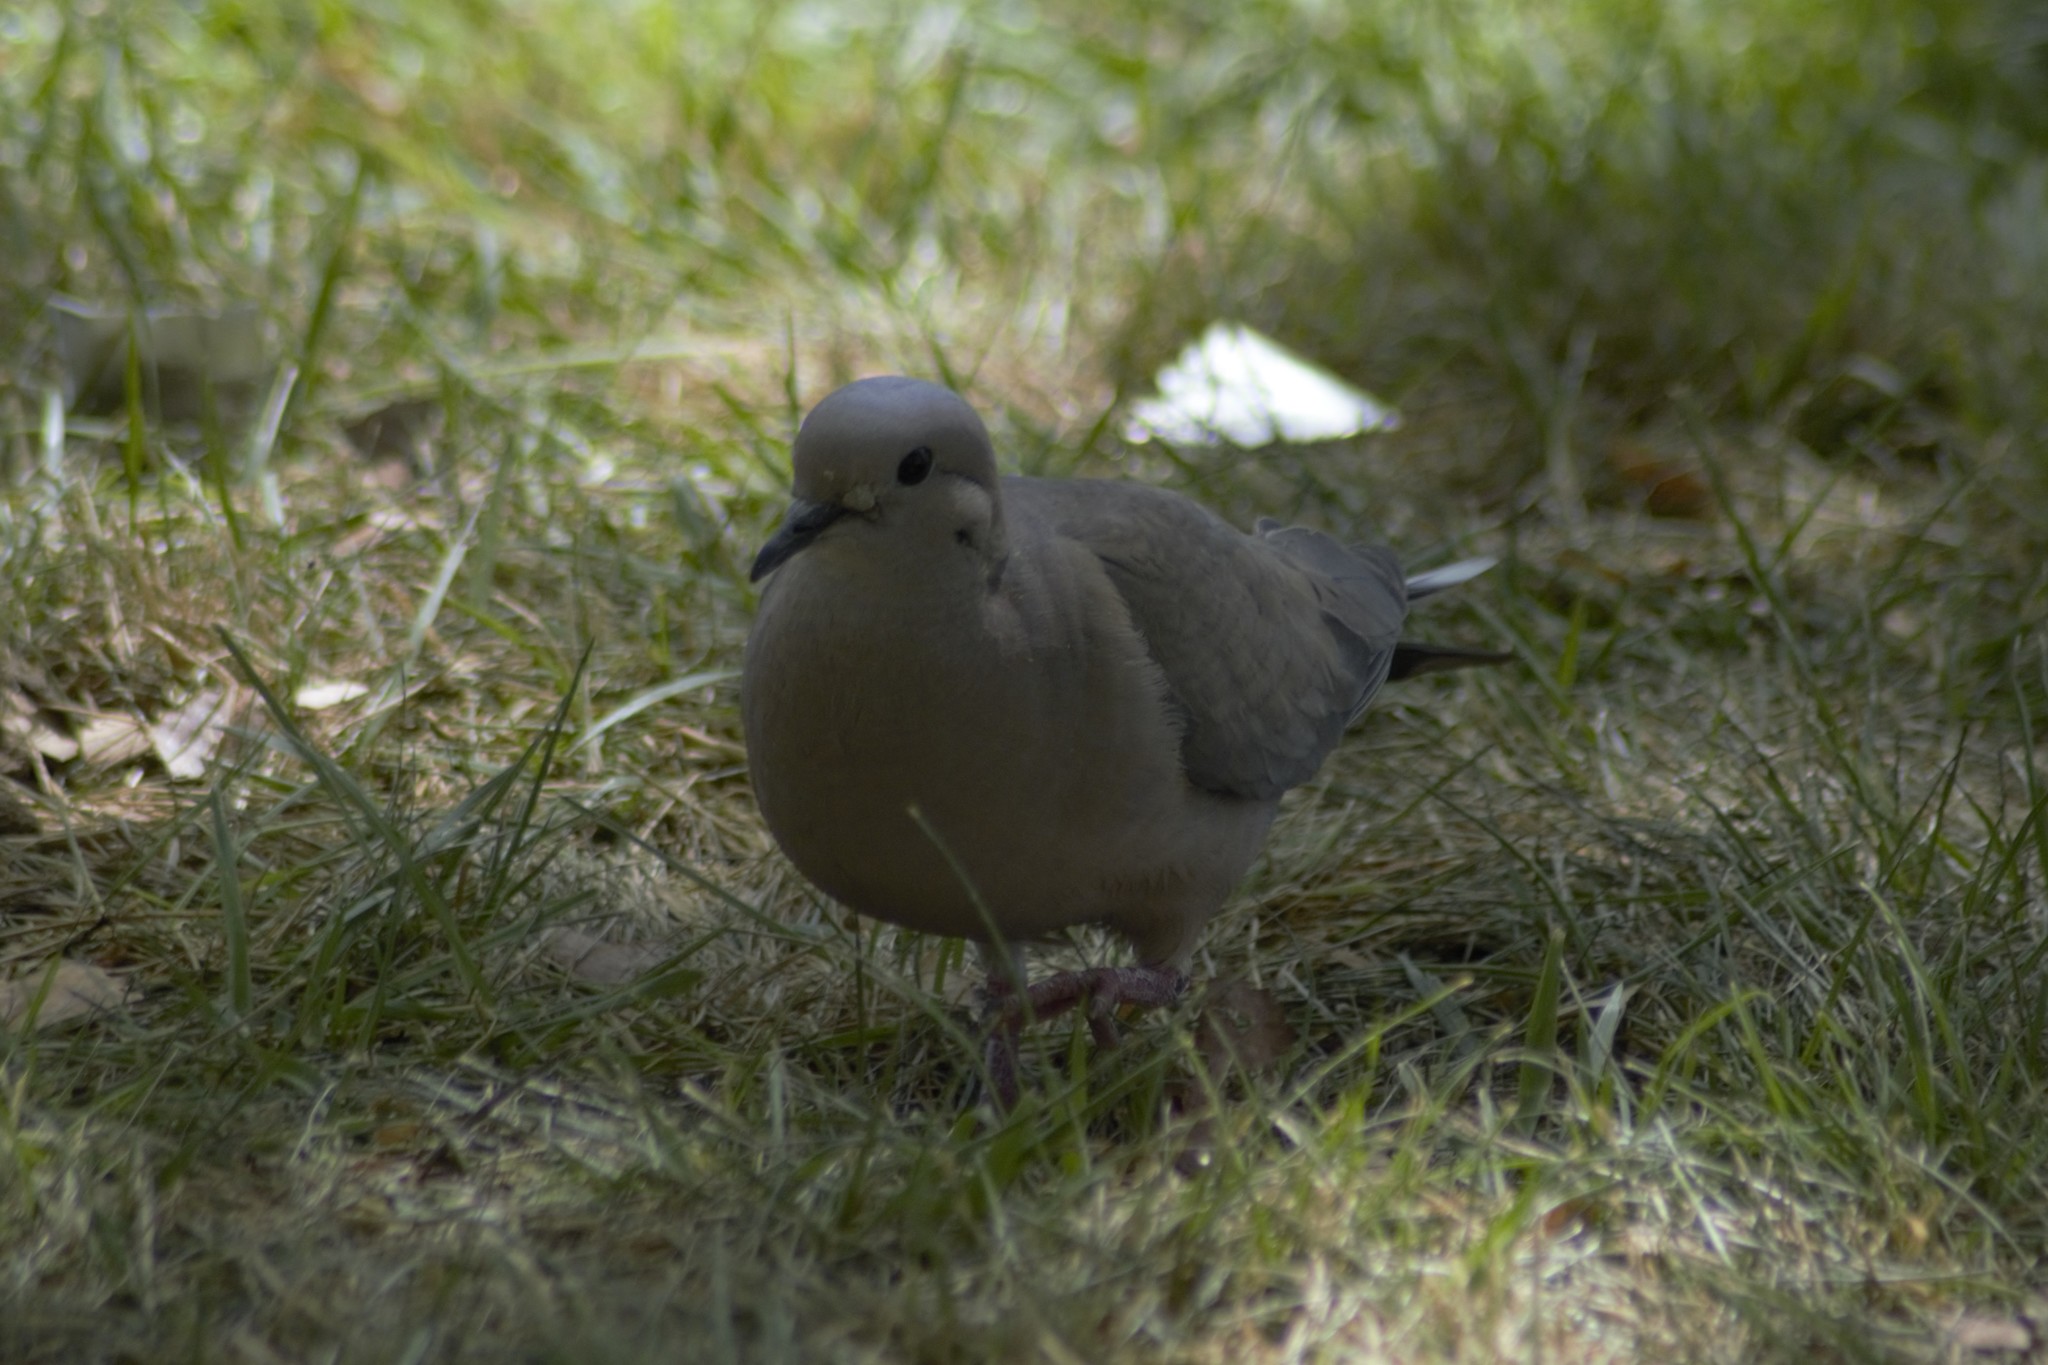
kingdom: Animalia
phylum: Chordata
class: Aves
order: Columbiformes
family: Columbidae
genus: Zenaida
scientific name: Zenaida auriculata
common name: Eared dove
